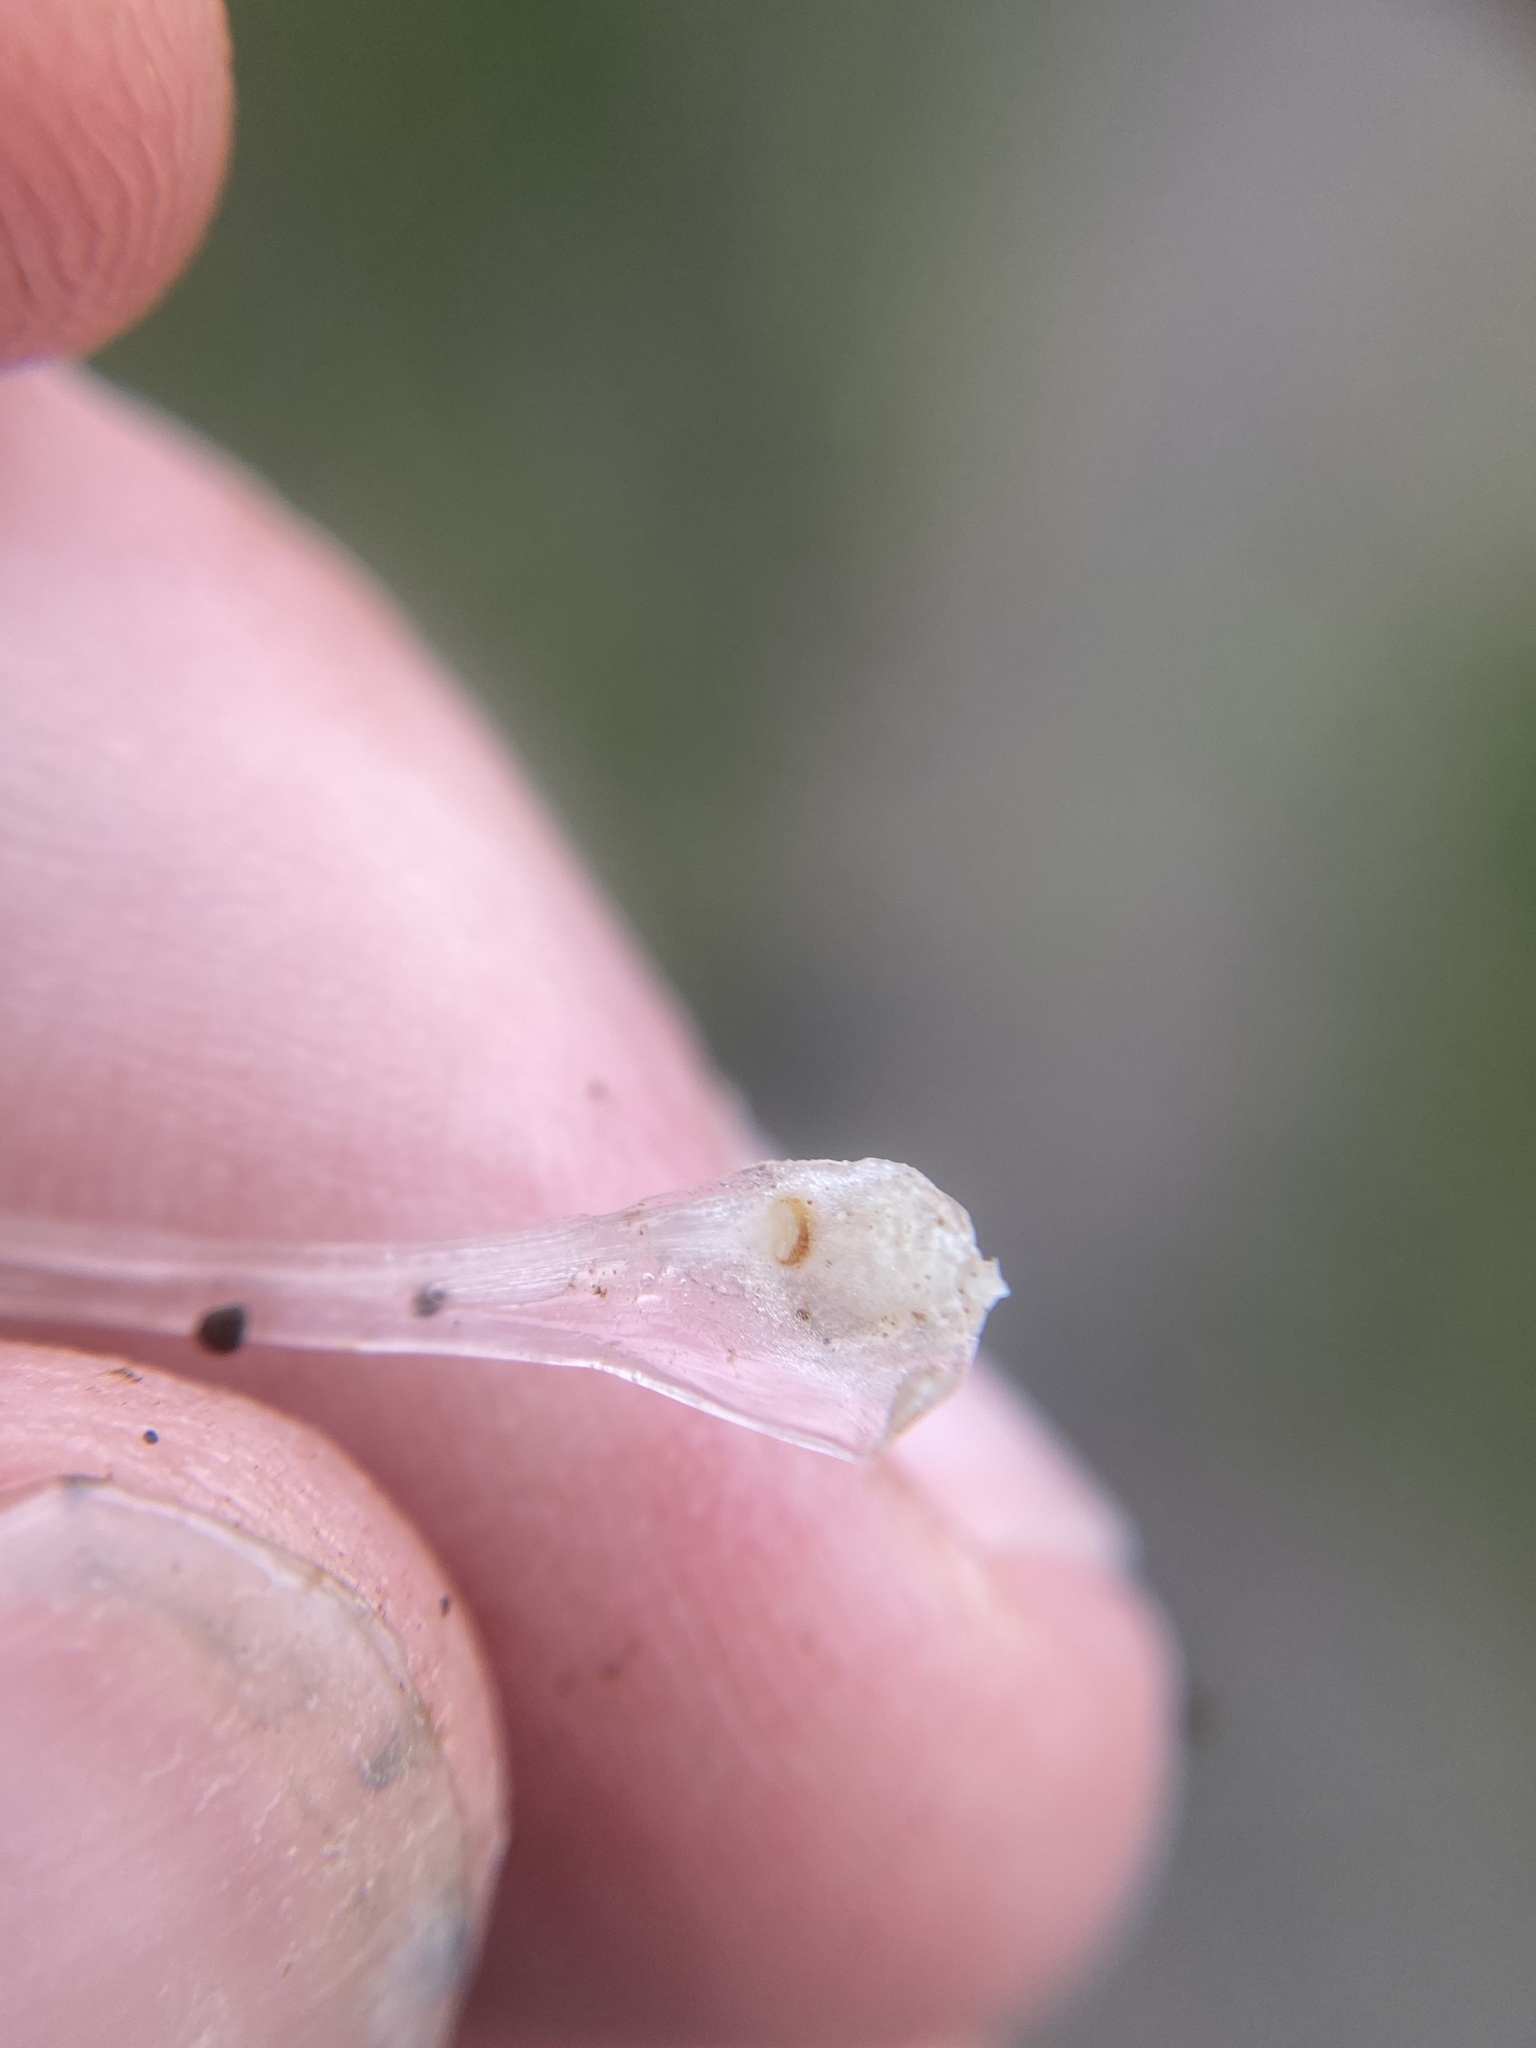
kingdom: Plantae
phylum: Tracheophyta
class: Lycopodiopsida
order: Isoetales
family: Isoetaceae
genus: Isoetes
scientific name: Isoetes nuttallii
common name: Nuttall's quillwort
